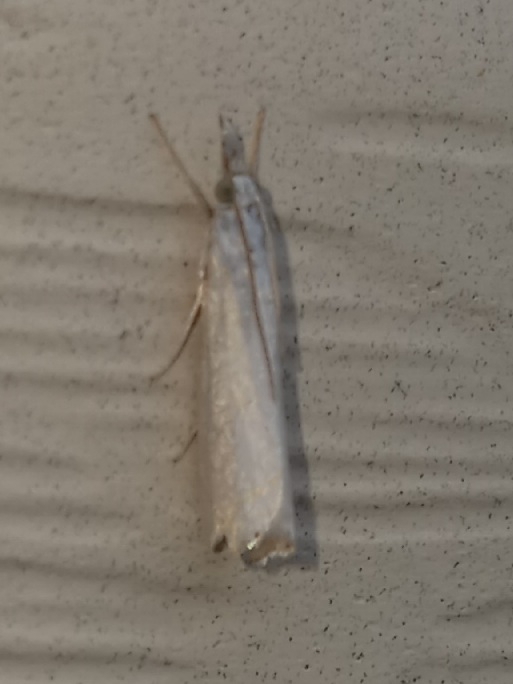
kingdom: Animalia
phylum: Arthropoda
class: Insecta
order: Lepidoptera
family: Crambidae
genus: Crambus
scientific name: Crambus albellus
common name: Small white grass-veneer
